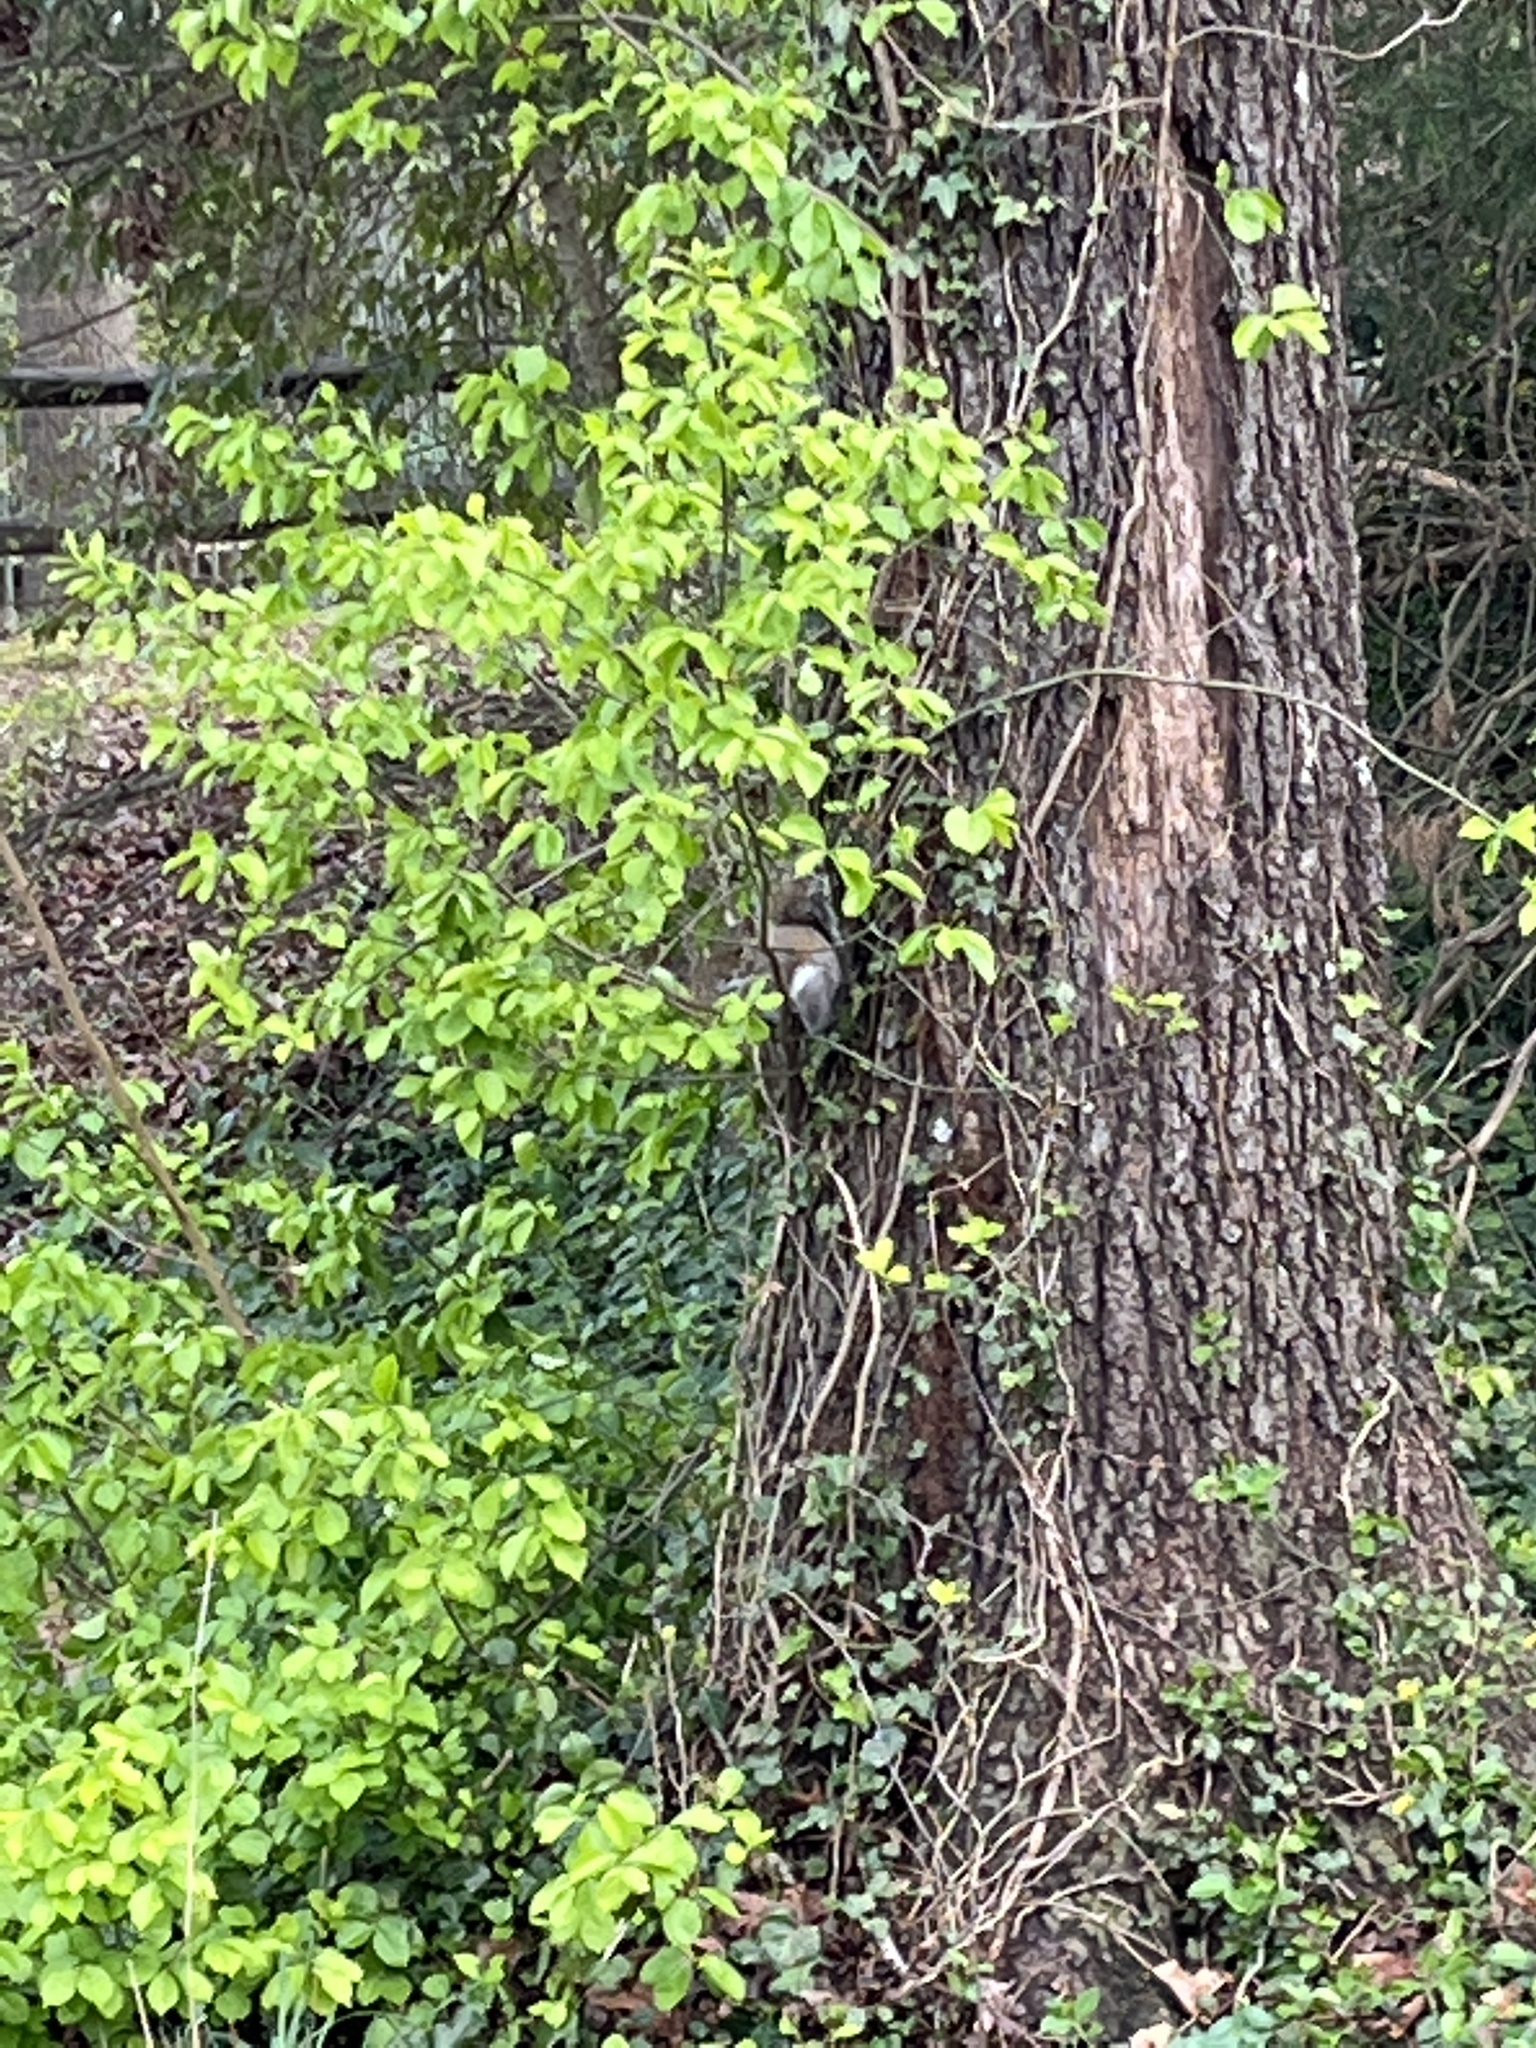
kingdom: Animalia
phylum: Chordata
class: Mammalia
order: Rodentia
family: Sciuridae
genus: Sciurus
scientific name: Sciurus carolinensis
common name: Eastern gray squirrel
